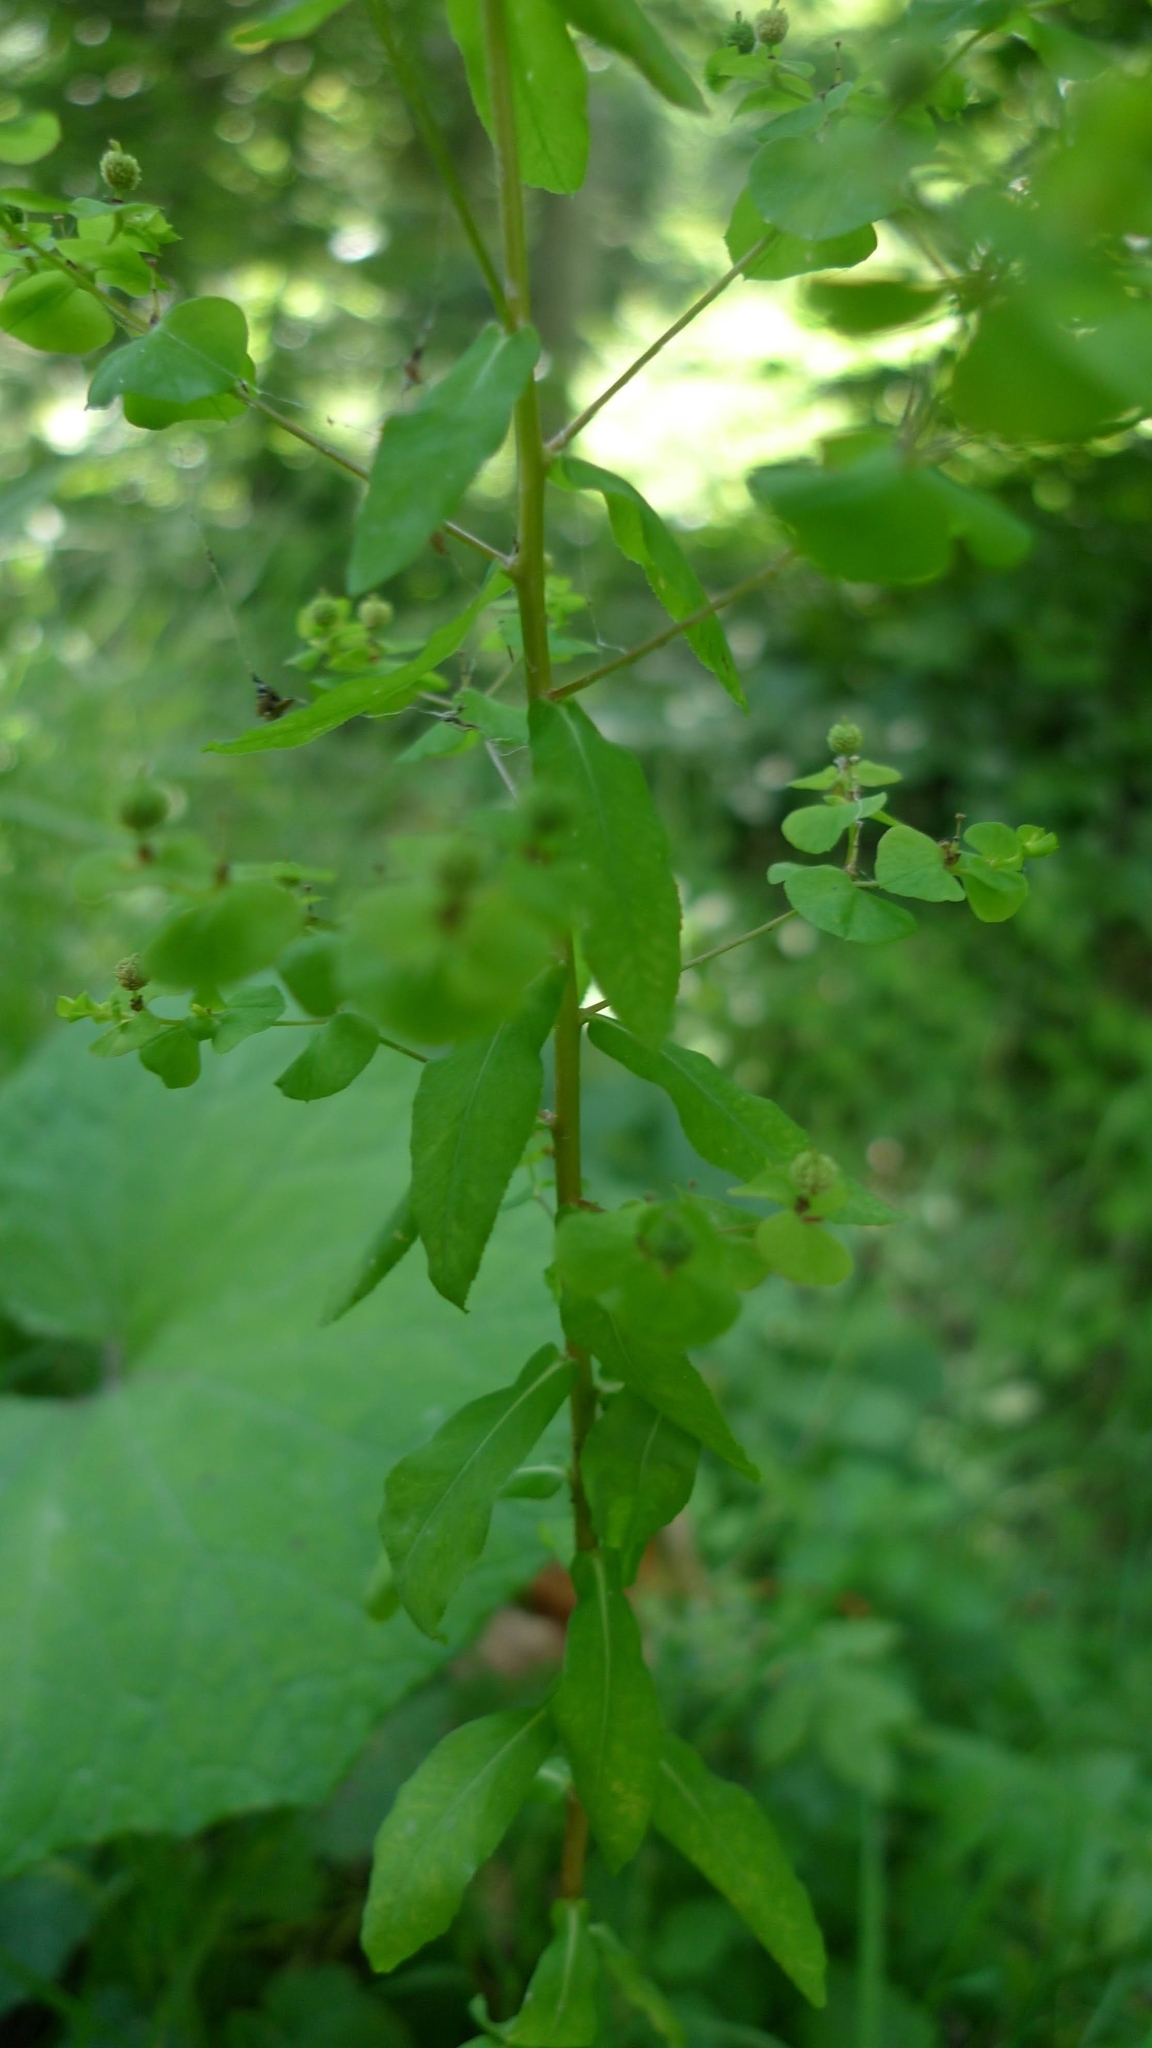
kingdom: Plantae
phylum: Tracheophyta
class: Magnoliopsida
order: Malpighiales
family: Euphorbiaceae
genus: Euphorbia
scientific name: Euphorbia stricta
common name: Upright spurge
